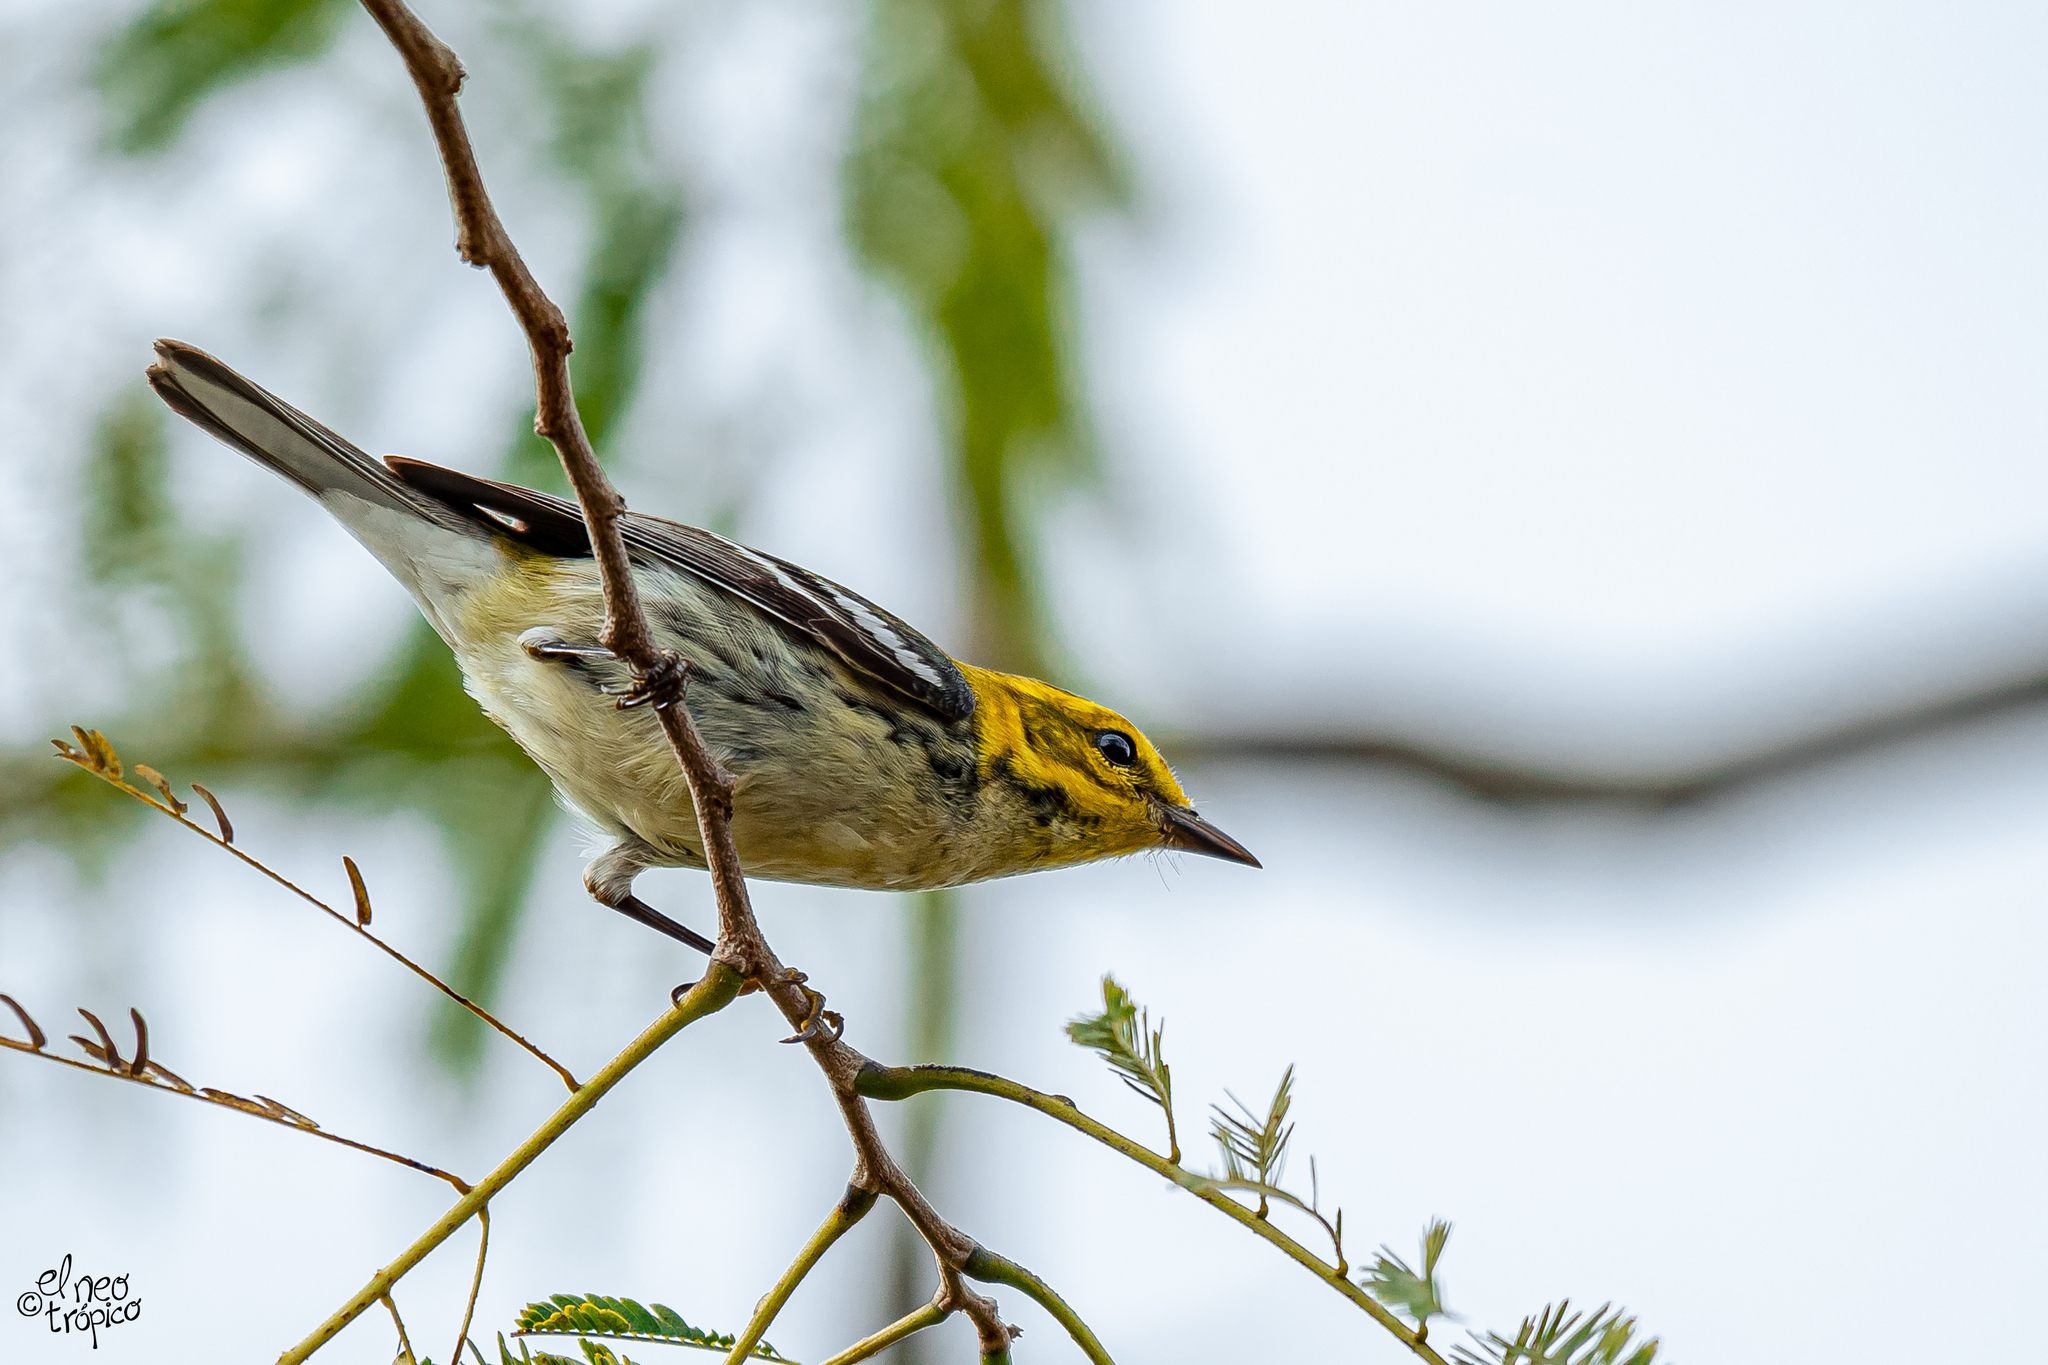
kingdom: Animalia
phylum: Chordata
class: Aves
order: Passeriformes
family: Parulidae
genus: Setophaga
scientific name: Setophaga virens
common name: Black-throated green warbler
